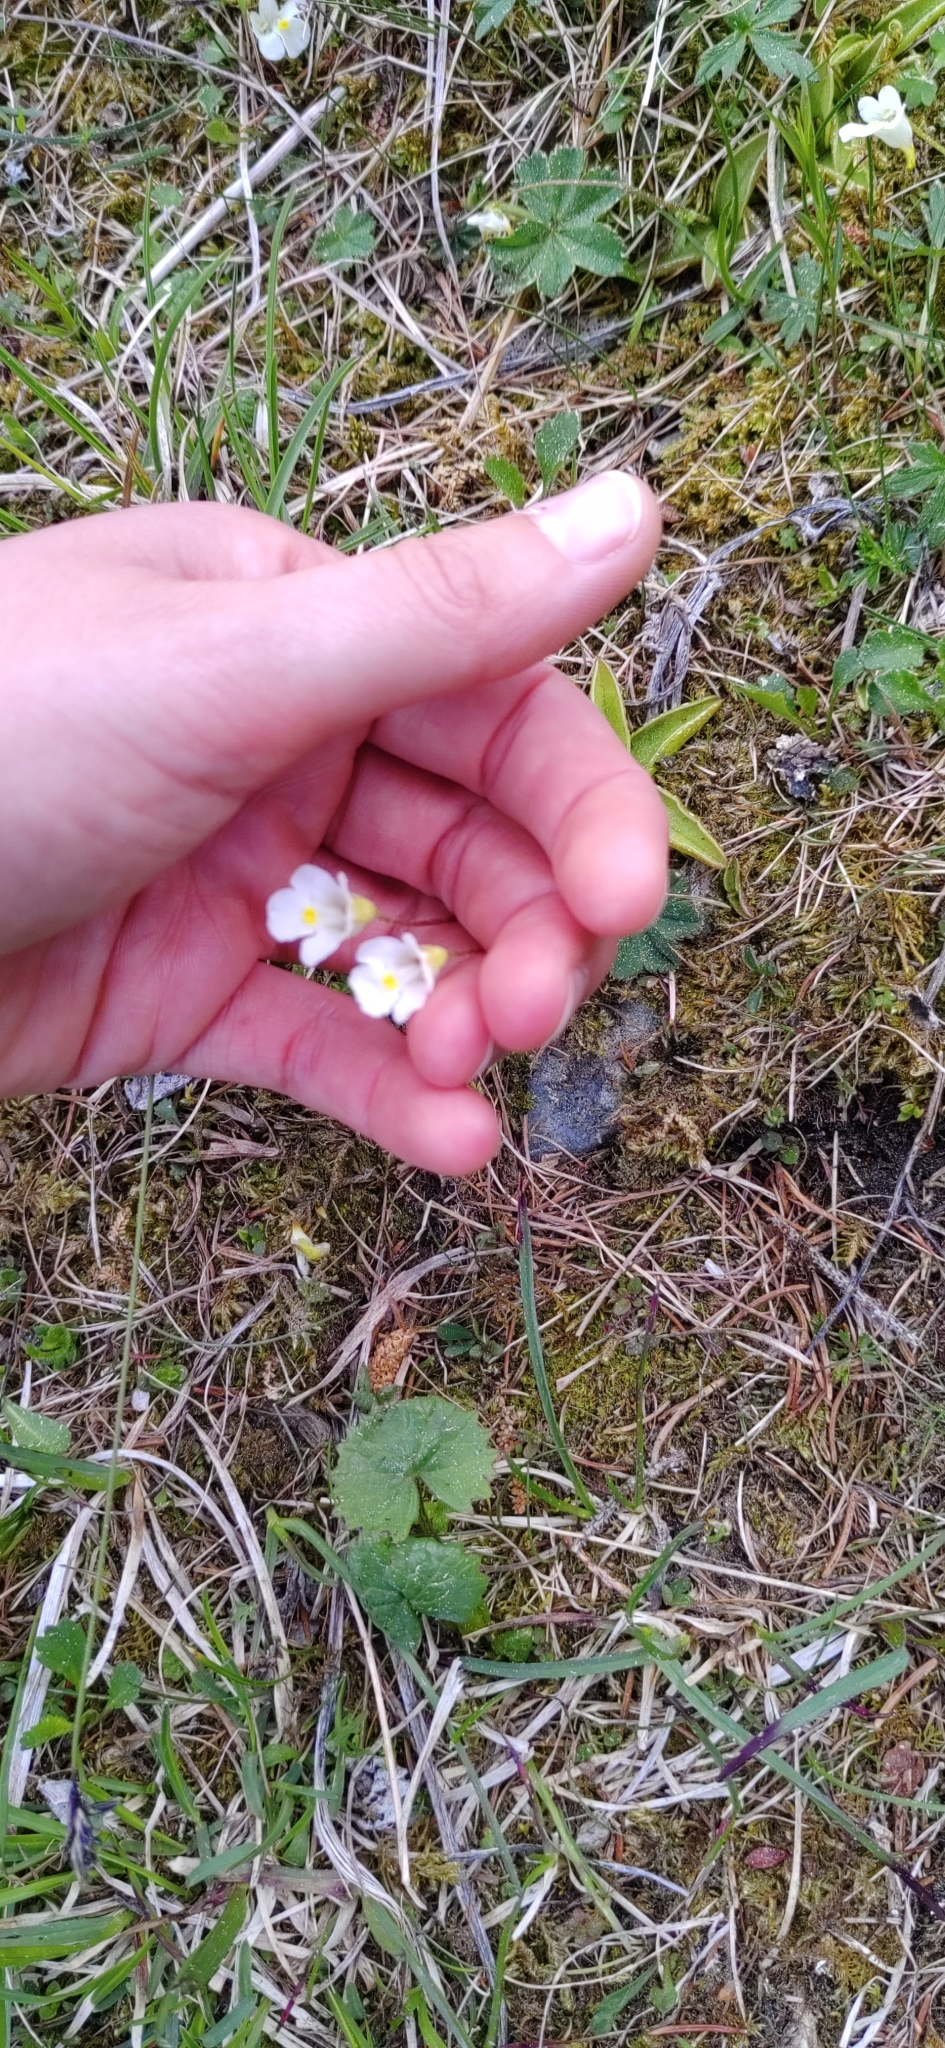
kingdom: Plantae
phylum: Tracheophyta
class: Magnoliopsida
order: Lamiales
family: Lentibulariaceae
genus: Pinguicula
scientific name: Pinguicula alpina
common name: Alpine butterwort
